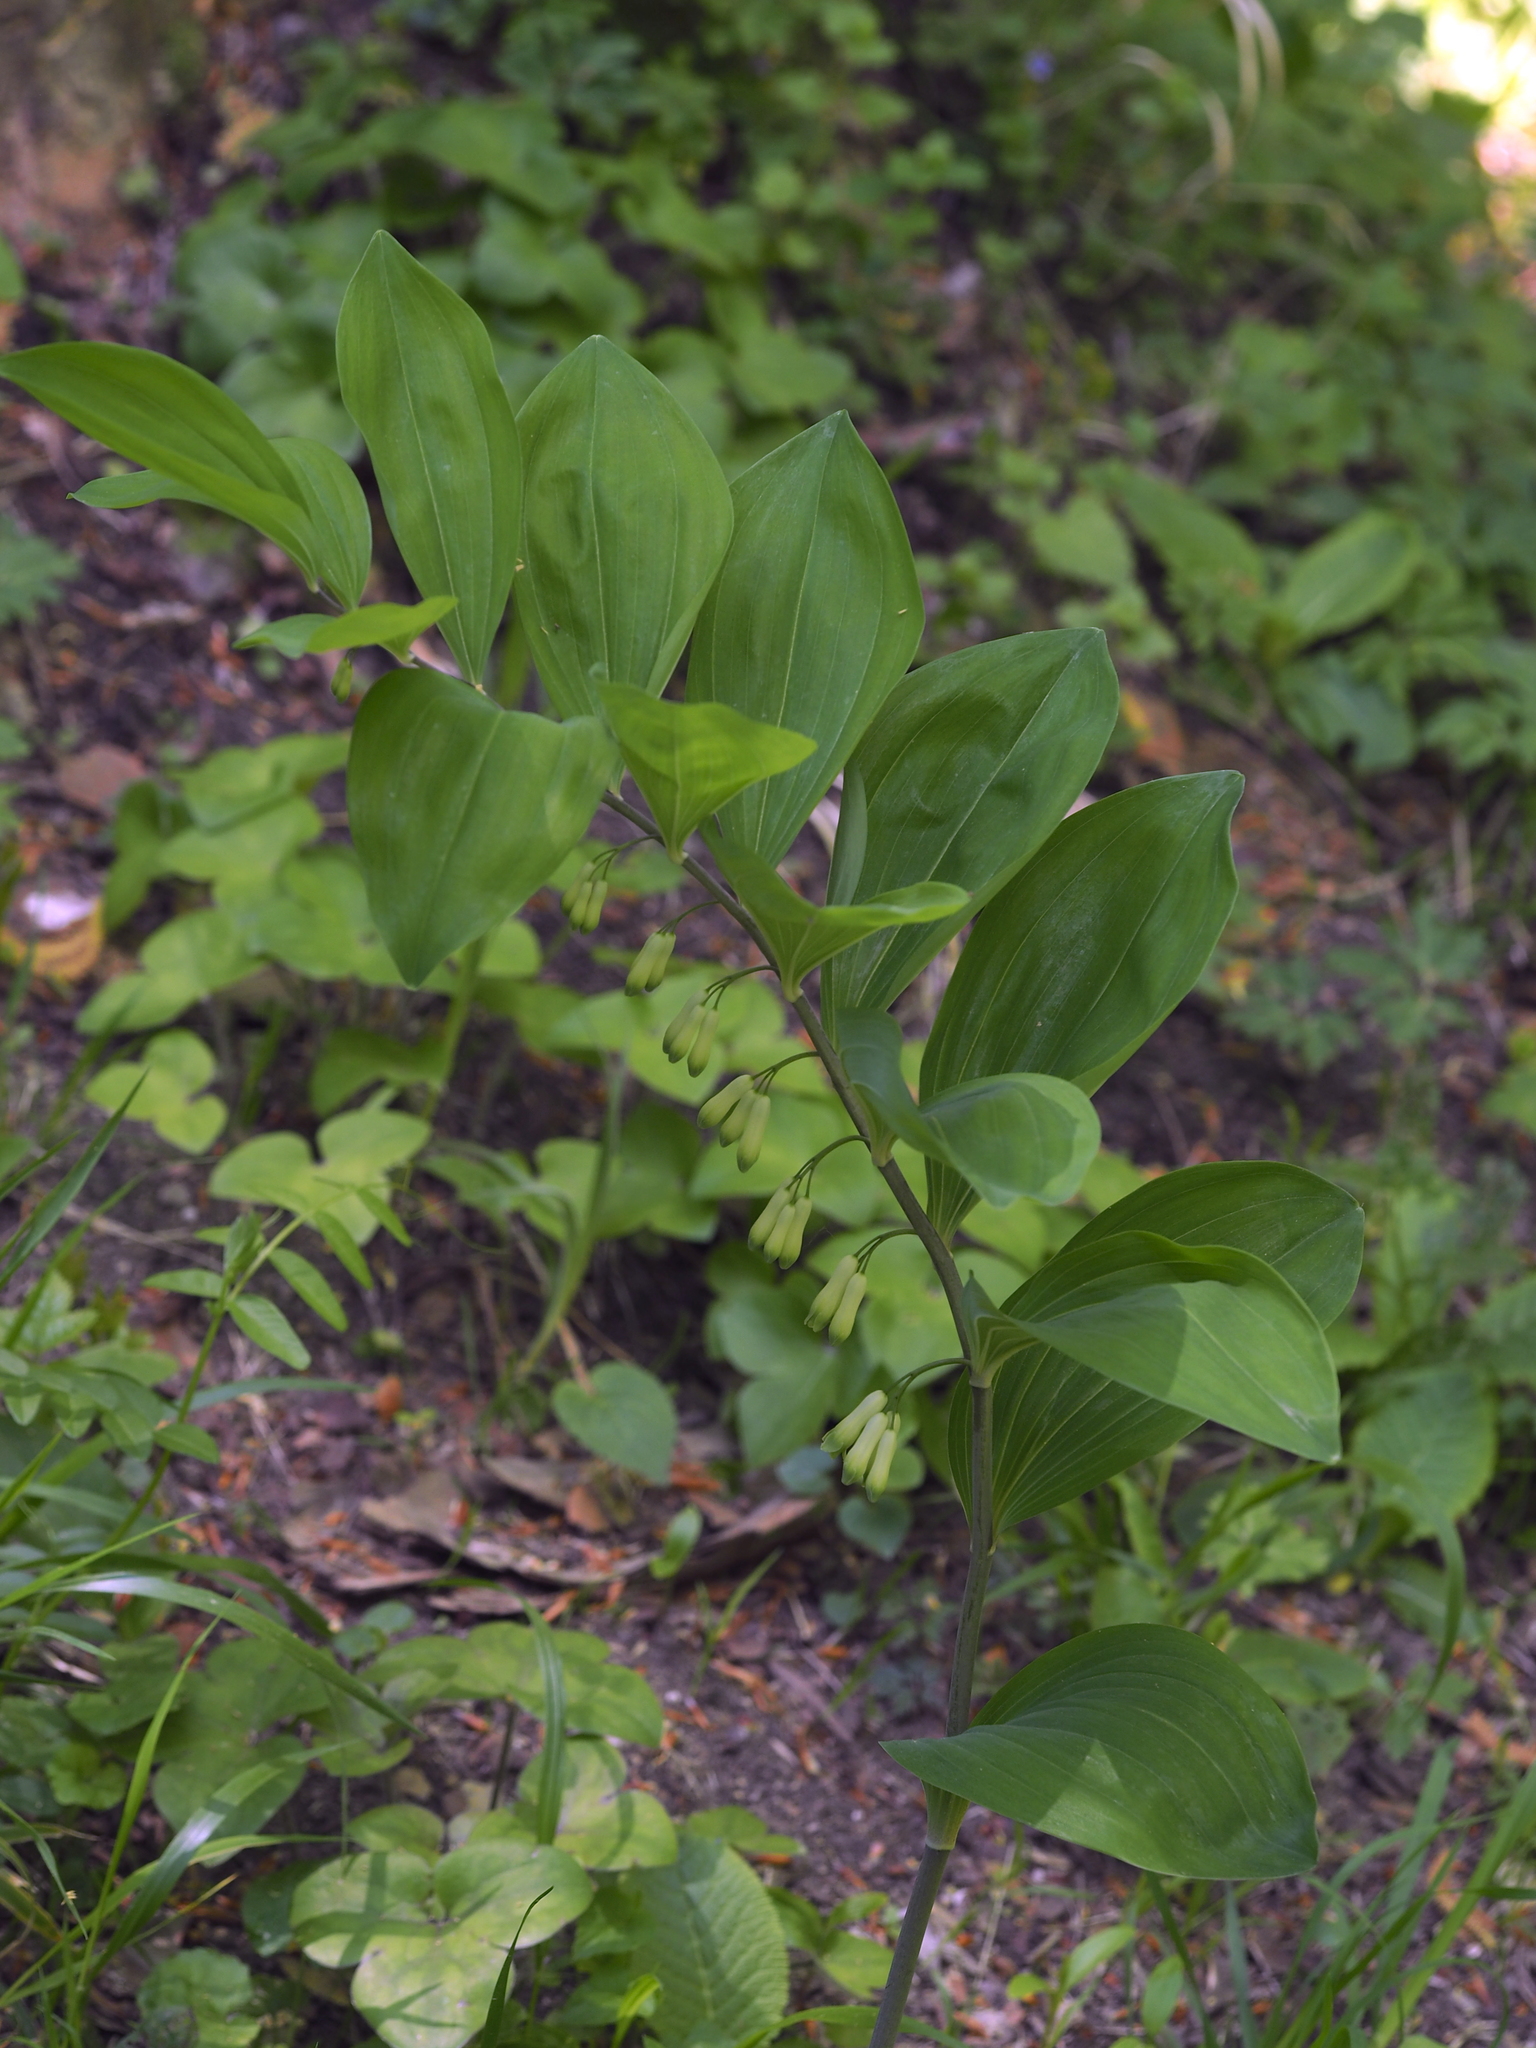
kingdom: Plantae
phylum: Tracheophyta
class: Liliopsida
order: Asparagales
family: Asparagaceae
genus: Polygonatum
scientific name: Polygonatum multiflorum
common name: Solomon's-seal
